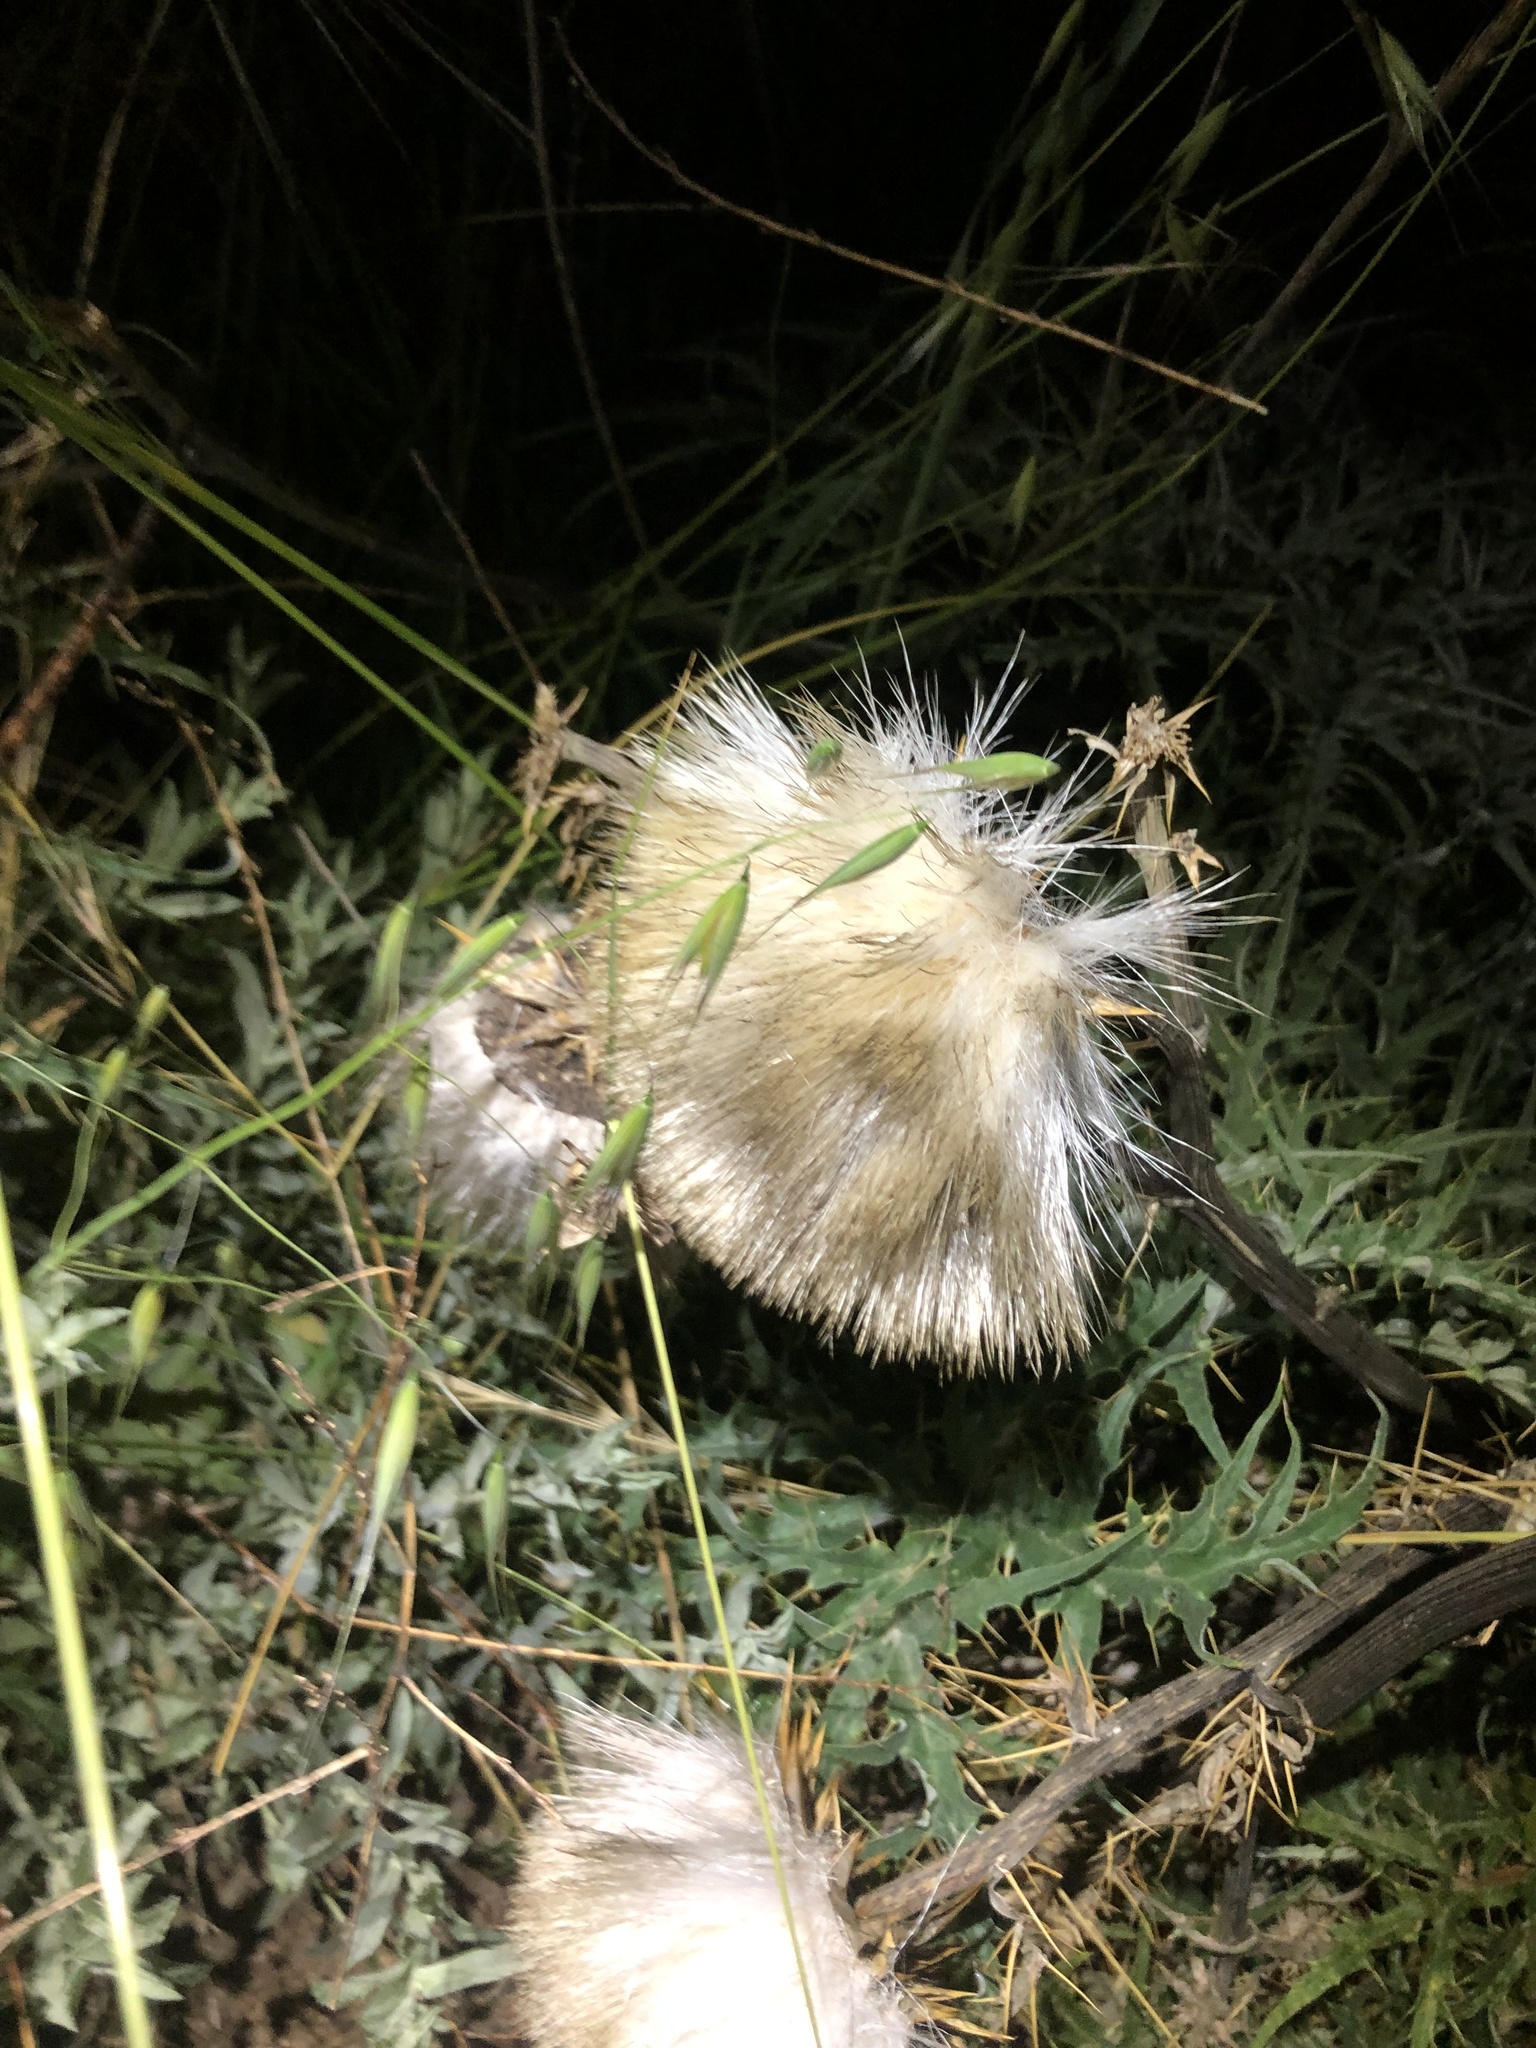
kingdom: Plantae
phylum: Tracheophyta
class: Magnoliopsida
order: Asterales
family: Asteraceae
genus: Cynara
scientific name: Cynara cardunculus
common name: Globe artichoke
